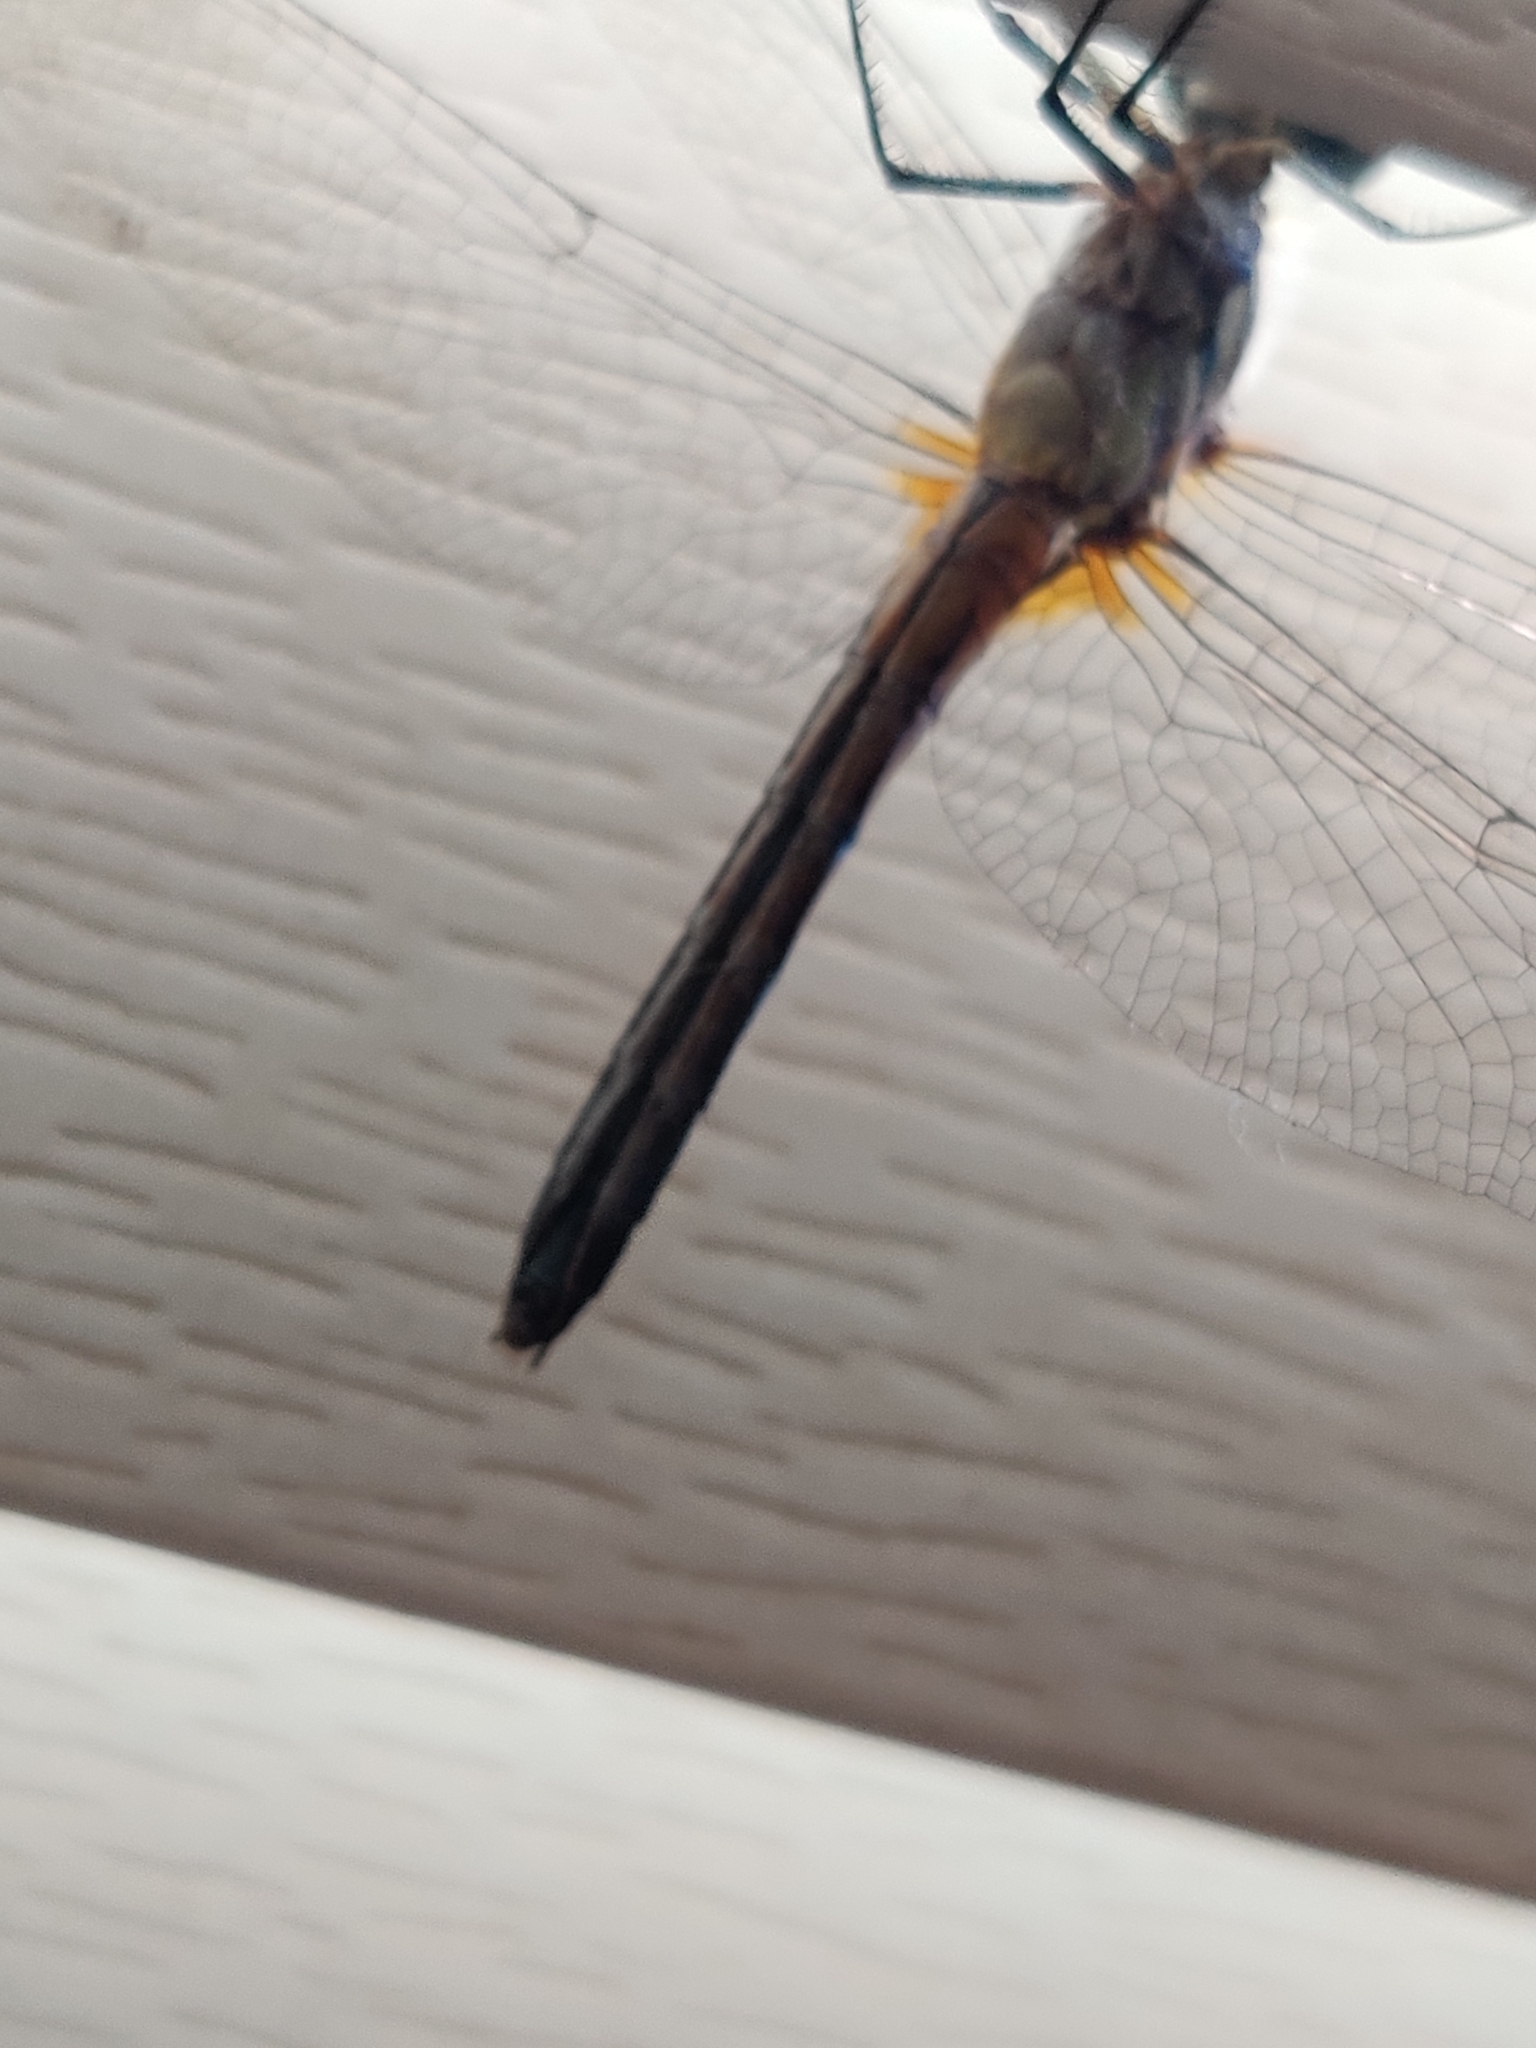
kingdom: Animalia
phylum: Arthropoda
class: Insecta
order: Odonata
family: Libellulidae
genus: Pachydiplax
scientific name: Pachydiplax longipennis
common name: Blue dasher
